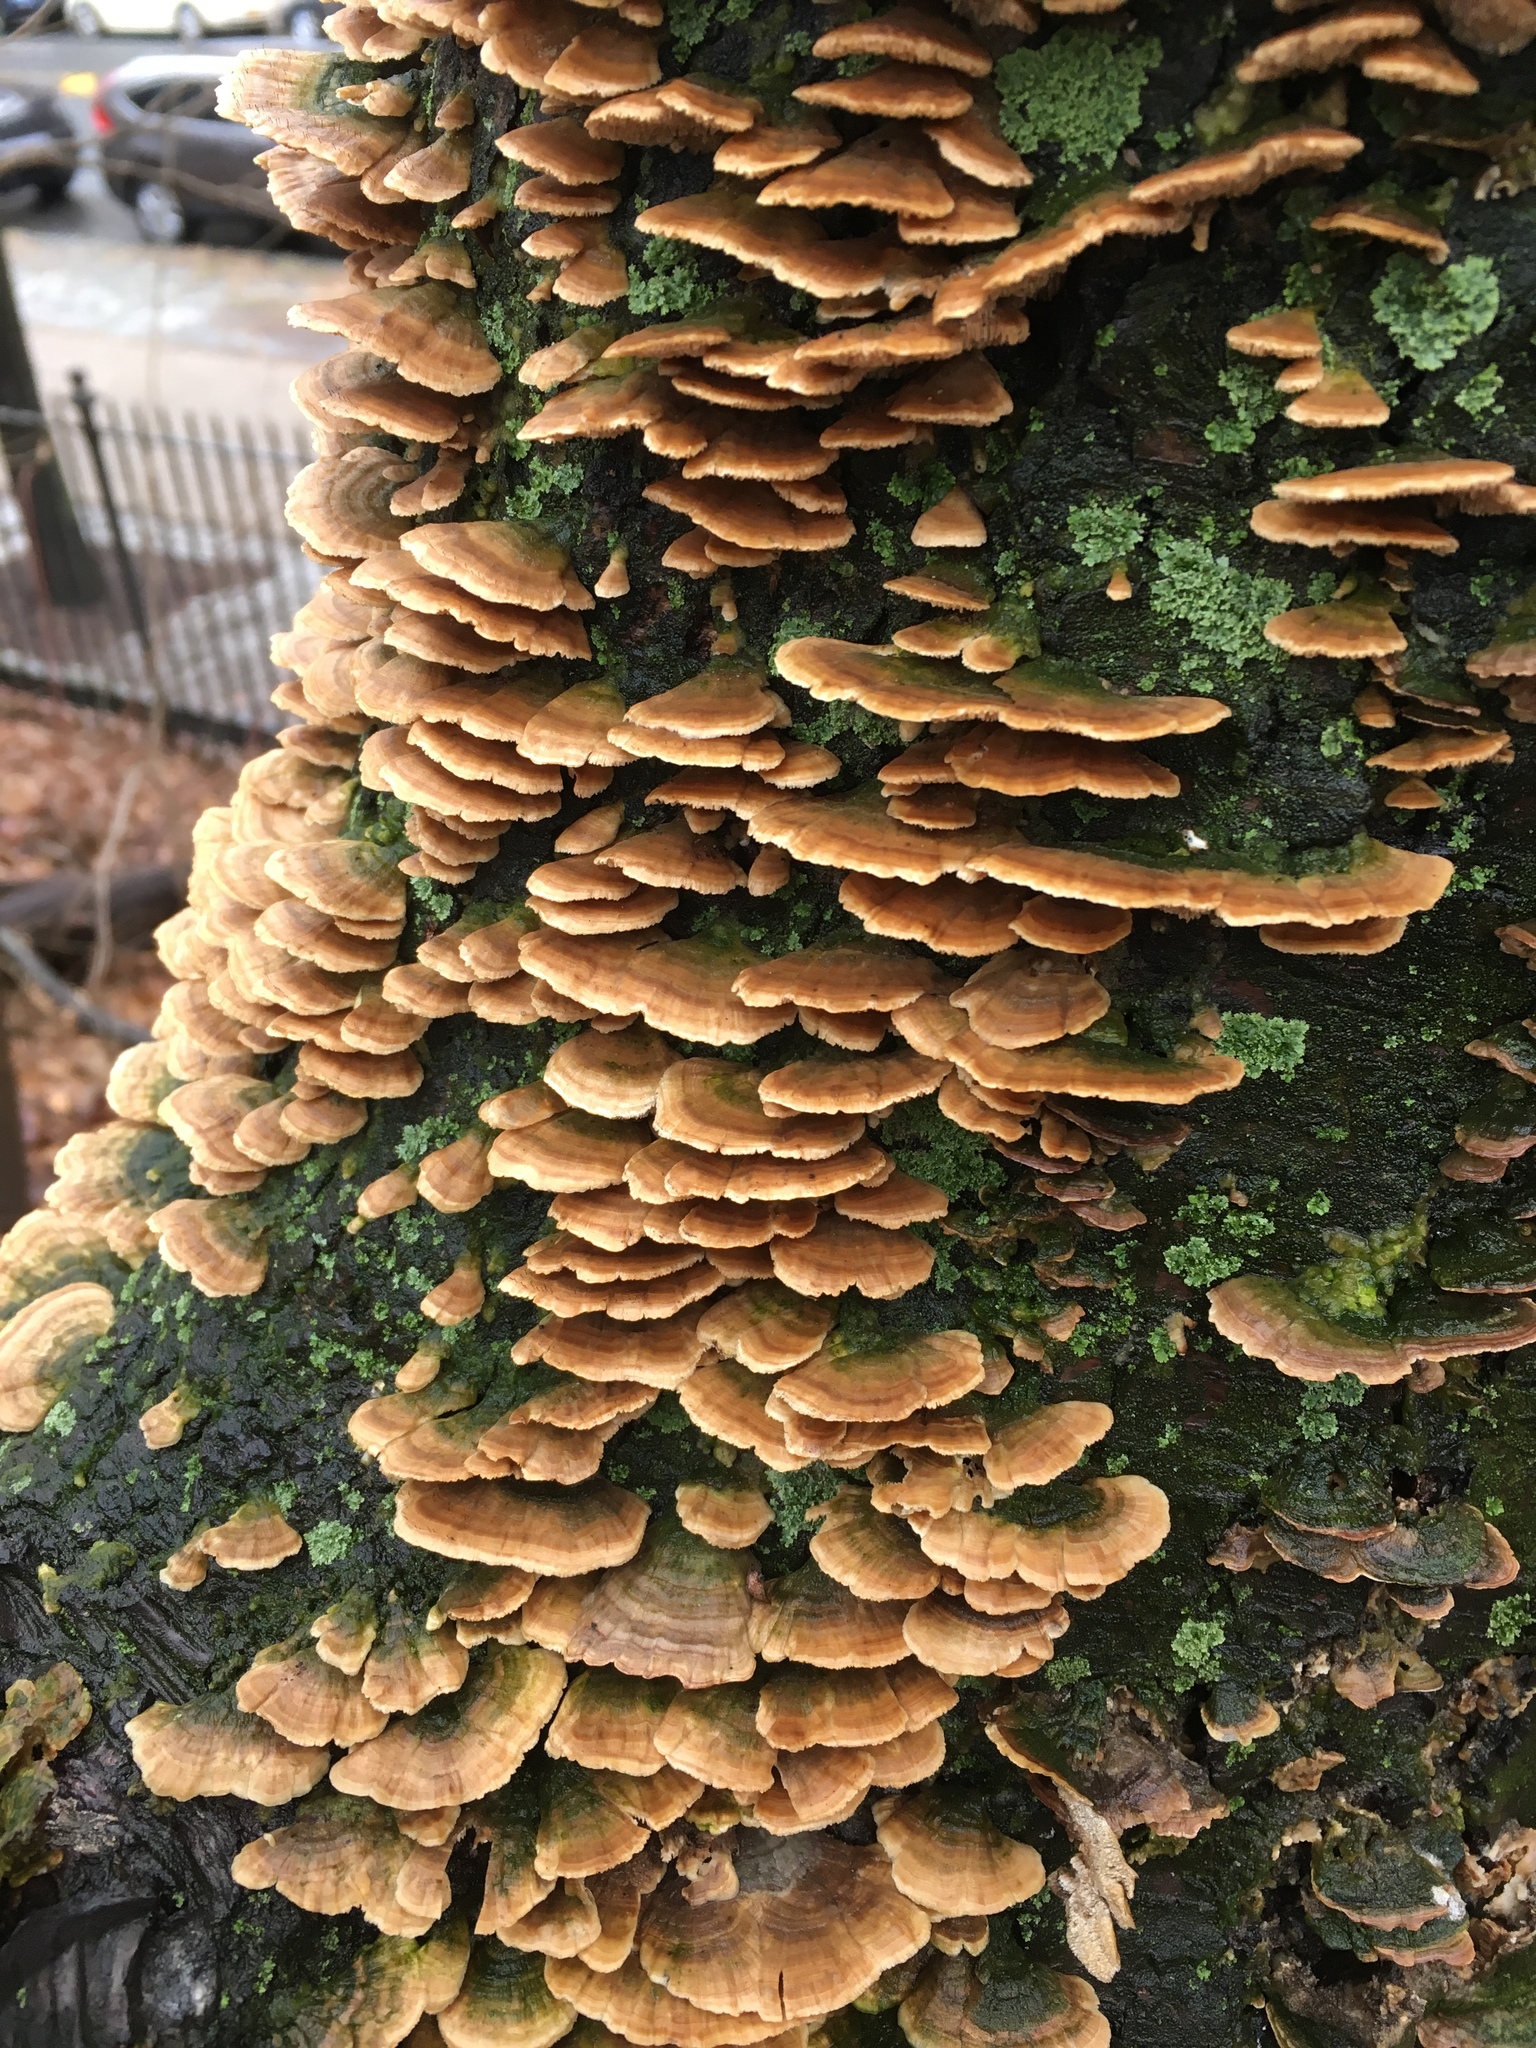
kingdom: Fungi
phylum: Basidiomycota
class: Agaricomycetes
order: Hymenochaetales
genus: Trichaptum
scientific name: Trichaptum biforme
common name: Violet-toothed polypore
